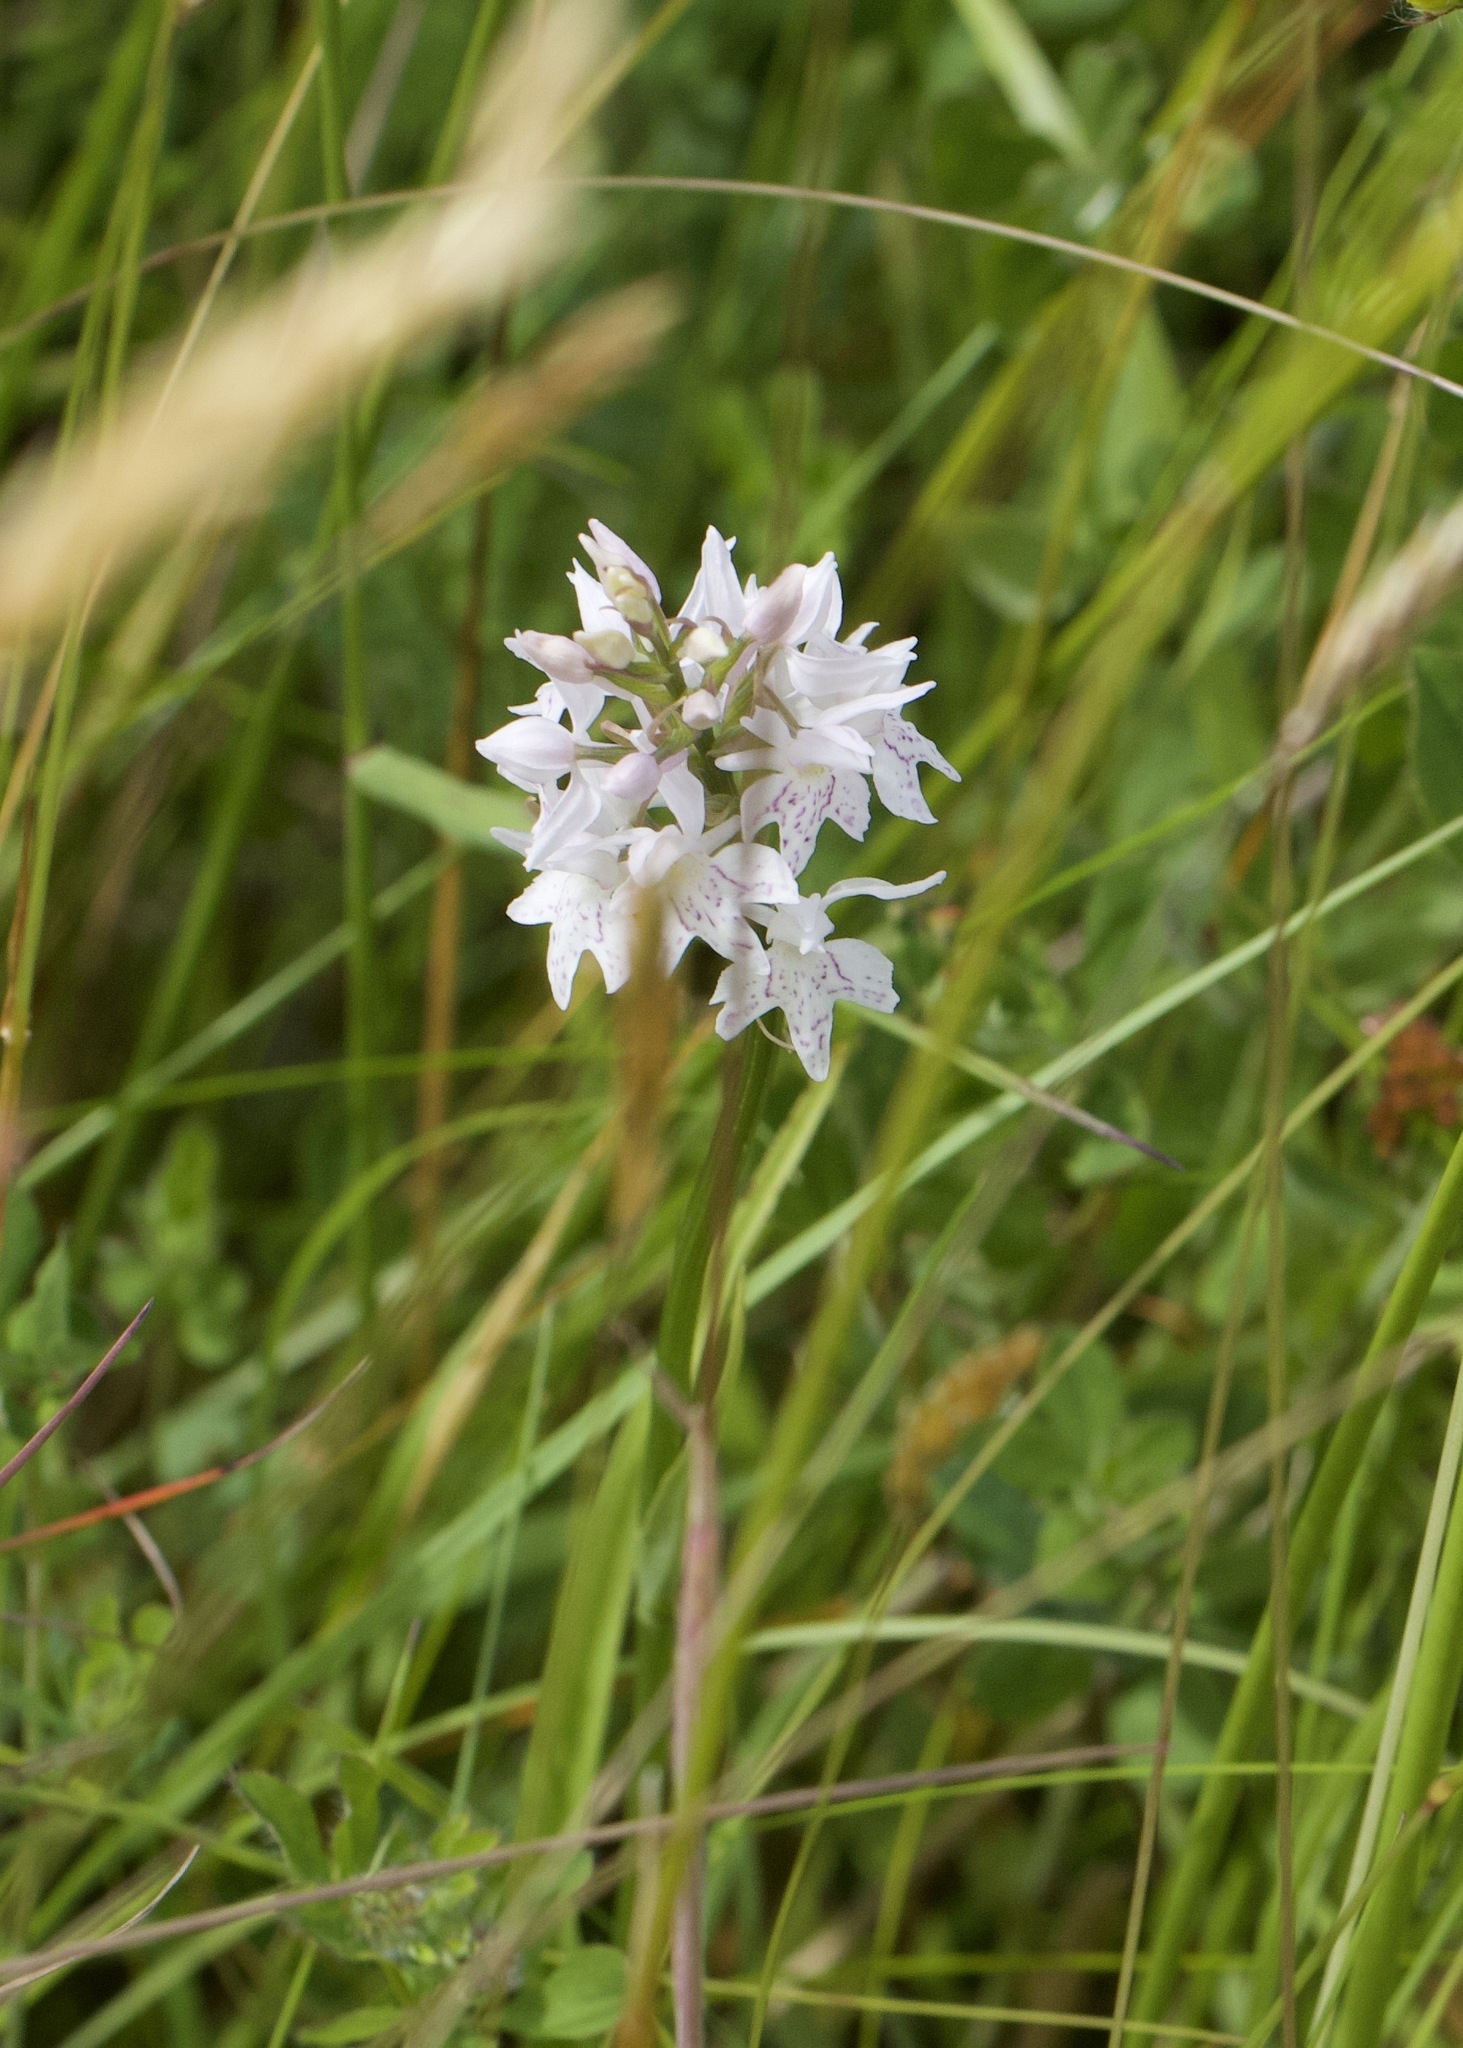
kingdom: Plantae
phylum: Tracheophyta
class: Liliopsida
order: Asparagales
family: Orchidaceae
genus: Dactylorhiza
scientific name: Dactylorhiza maculata
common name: Heath spotted-orchid
